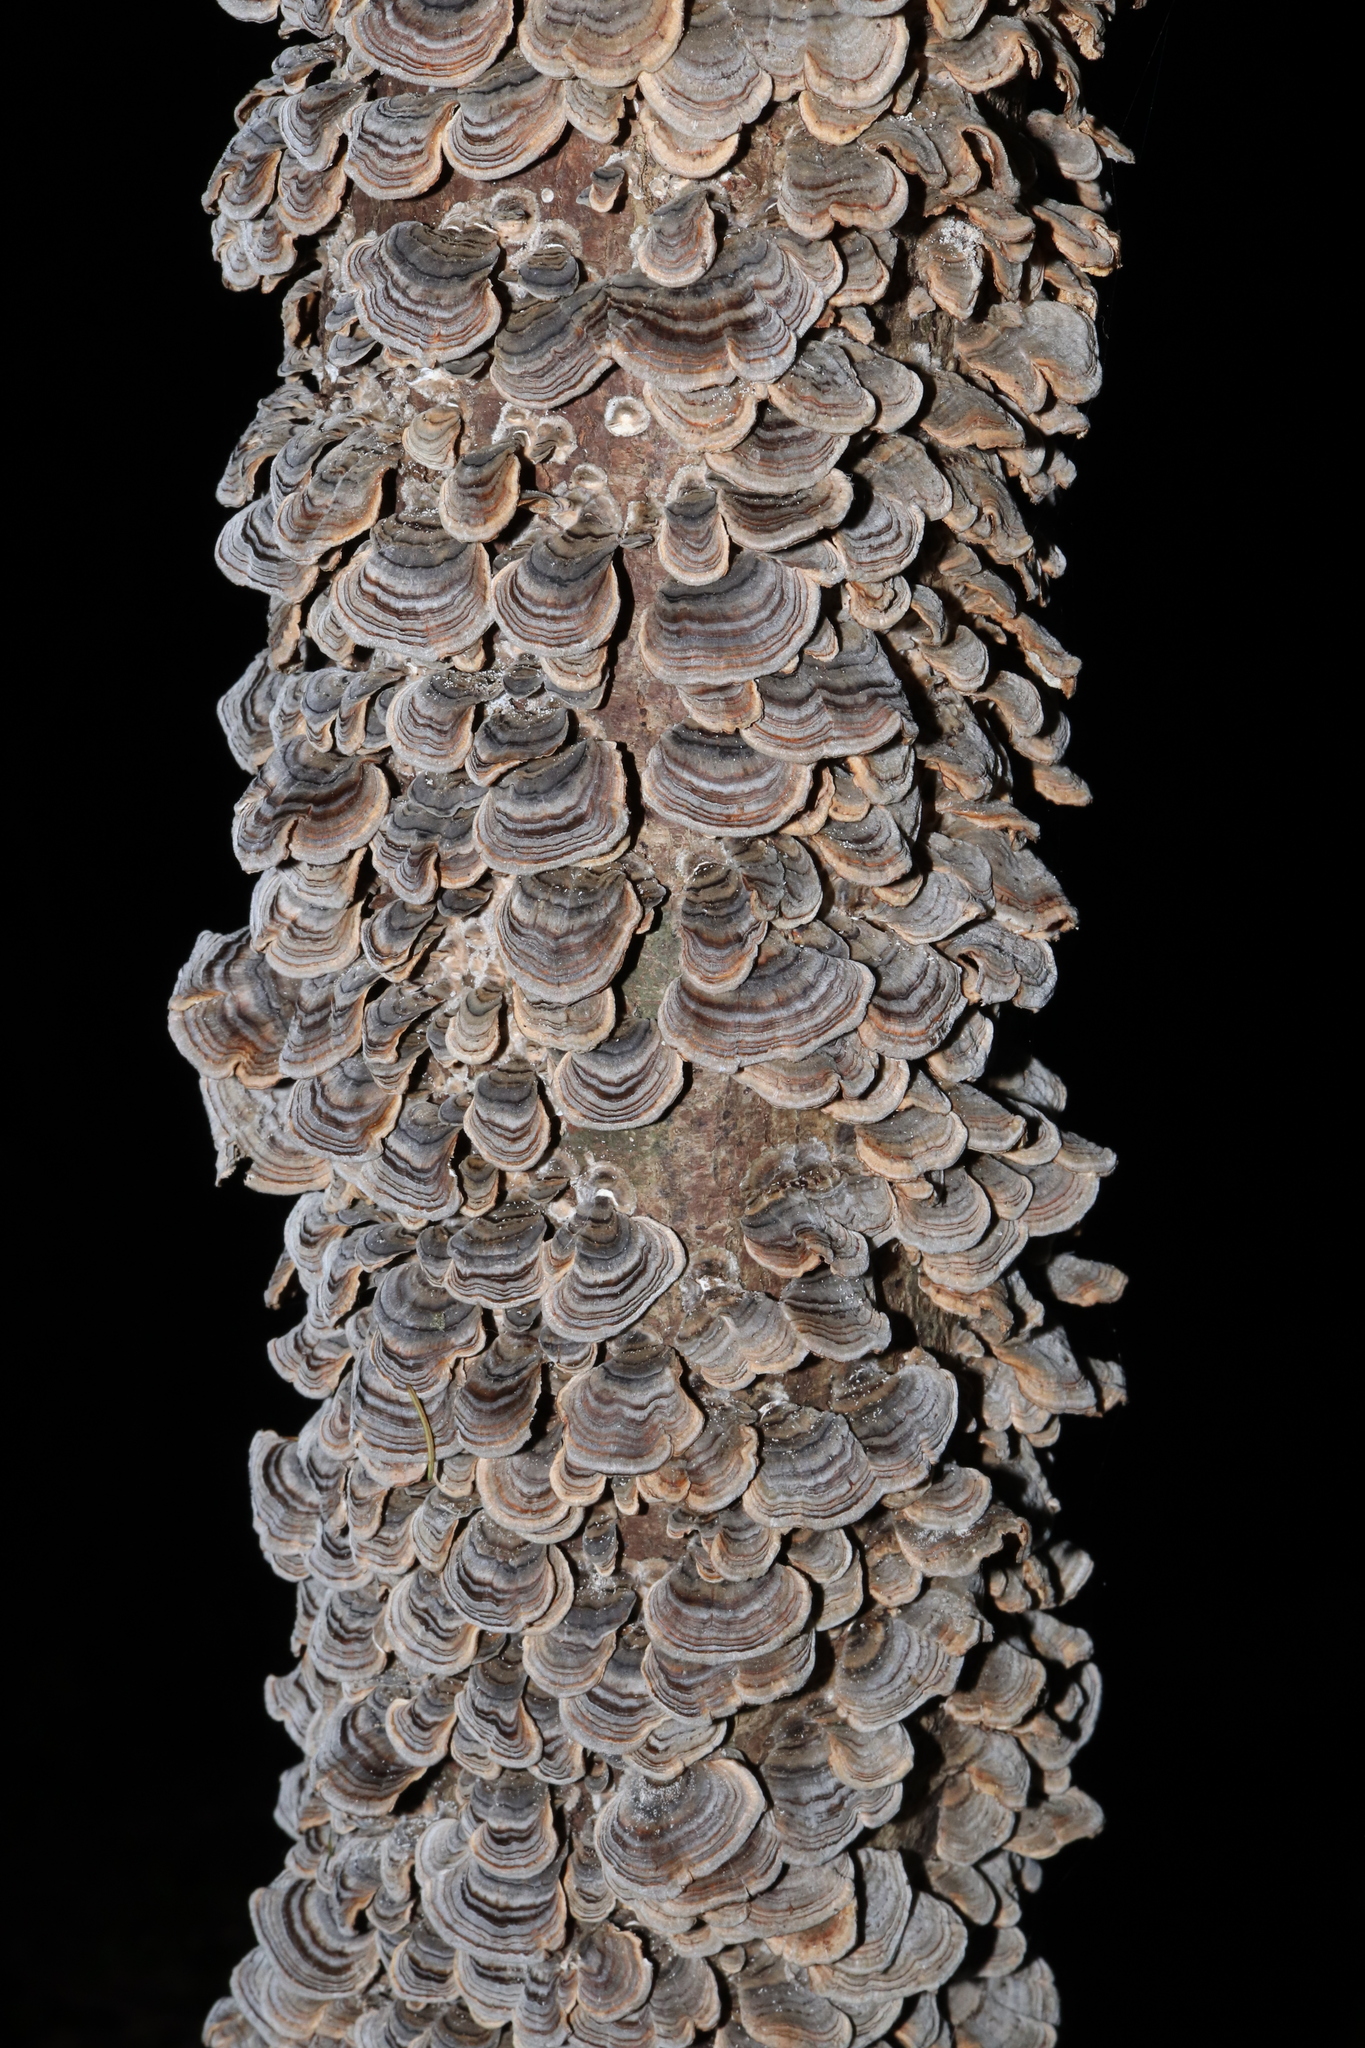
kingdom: Fungi
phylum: Basidiomycota
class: Agaricomycetes
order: Polyporales
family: Polyporaceae
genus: Trametes
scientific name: Trametes versicolor
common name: Turkeytail
